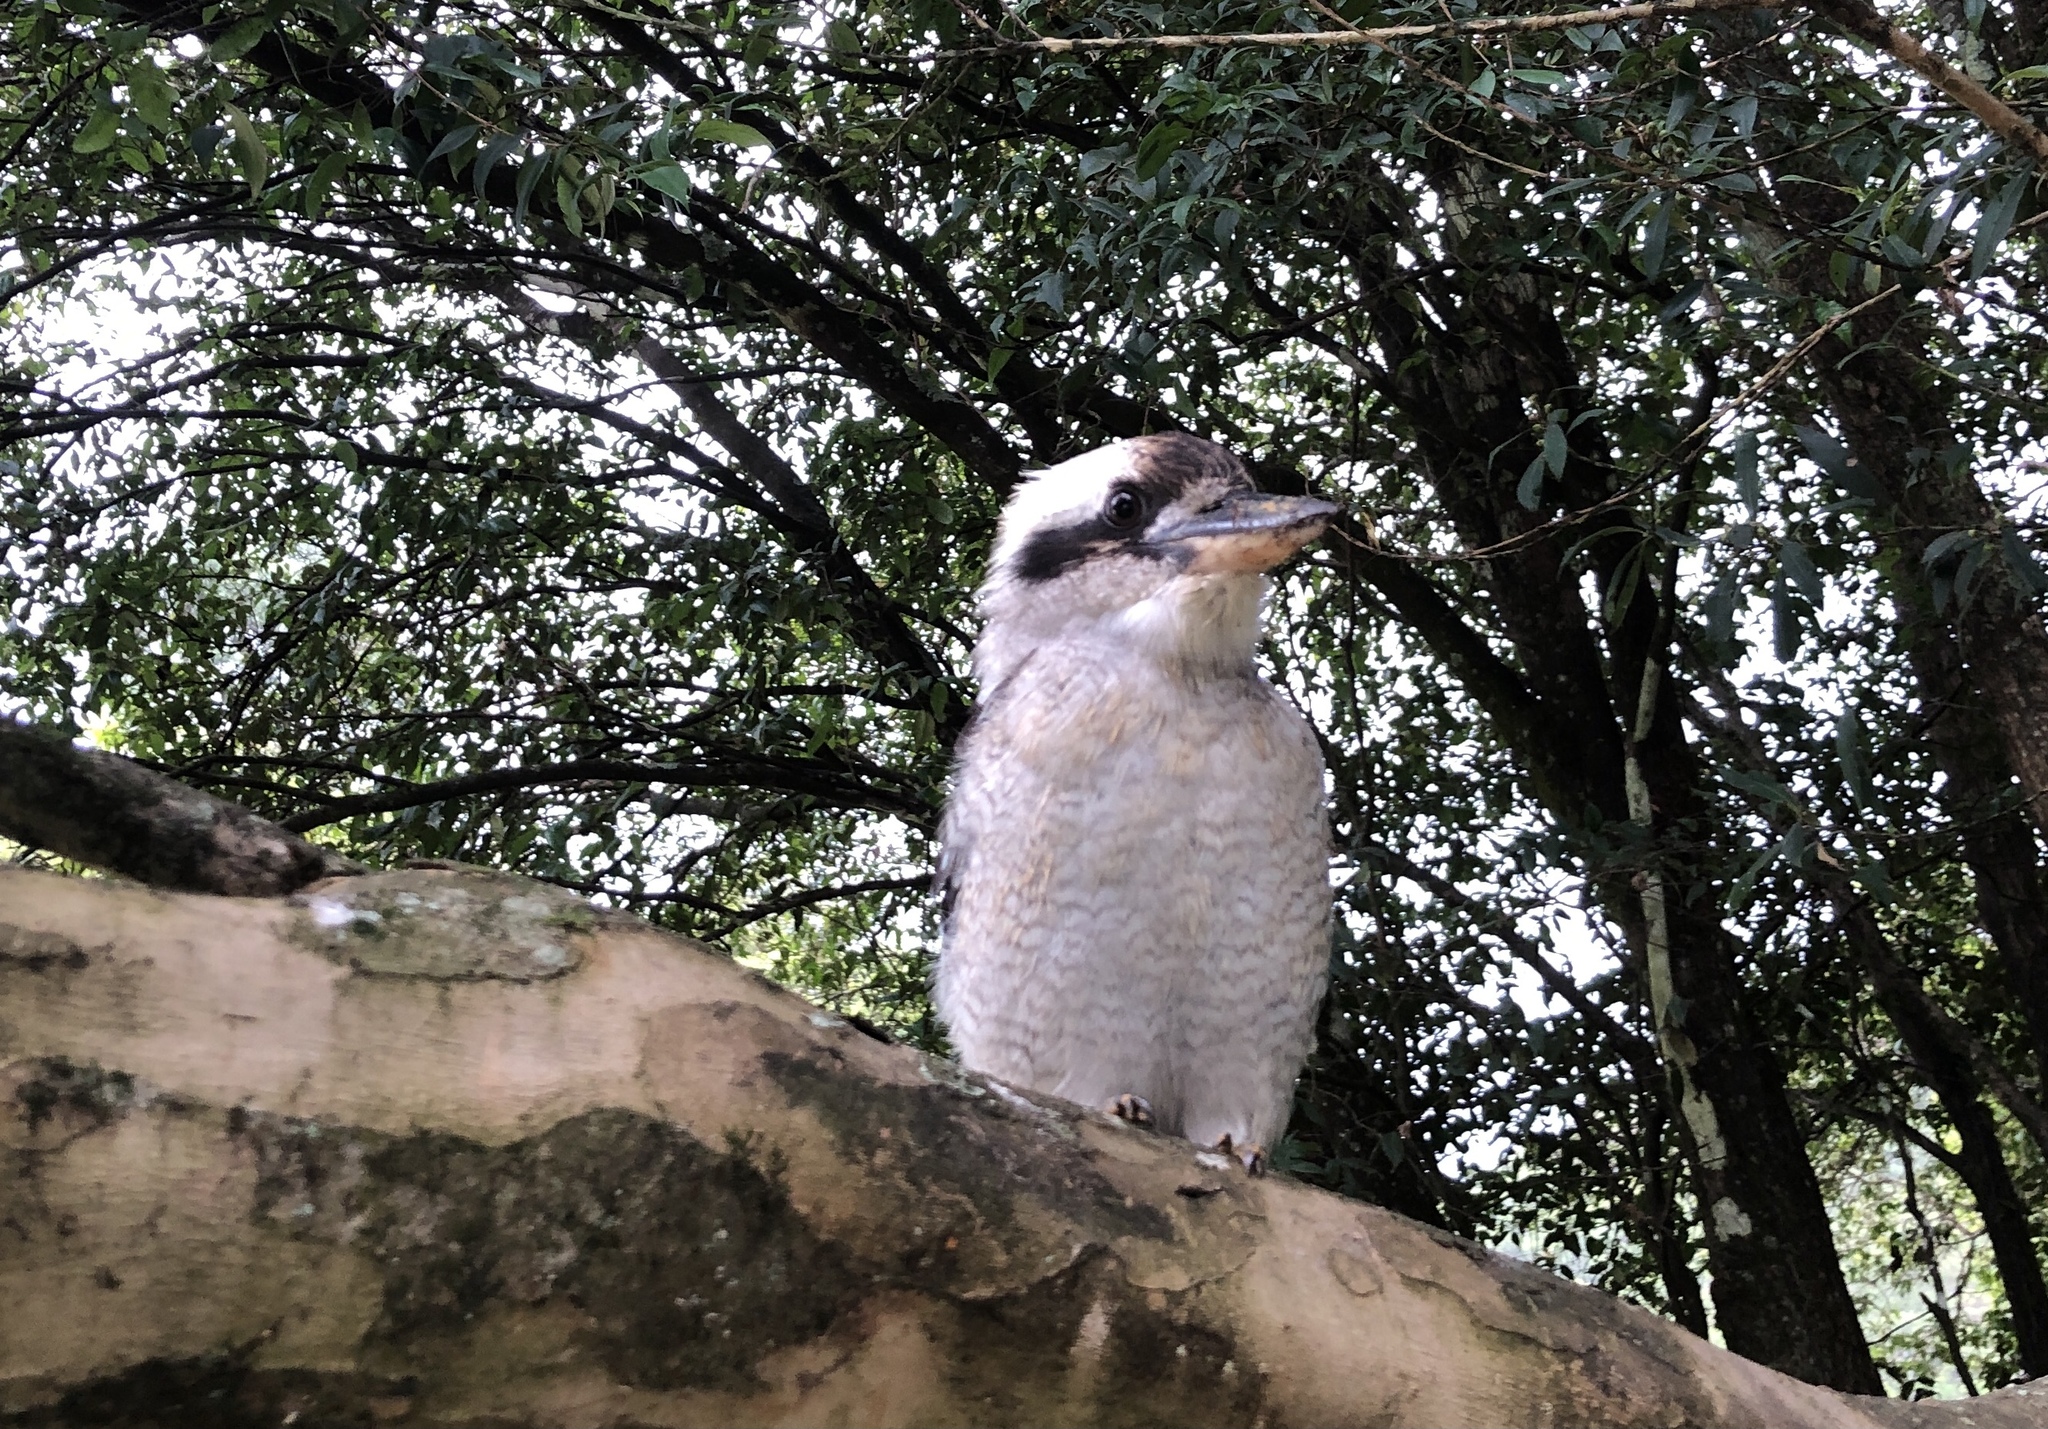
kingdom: Animalia
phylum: Chordata
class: Aves
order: Coraciiformes
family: Alcedinidae
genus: Dacelo
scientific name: Dacelo novaeguineae
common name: Laughing kookaburra
